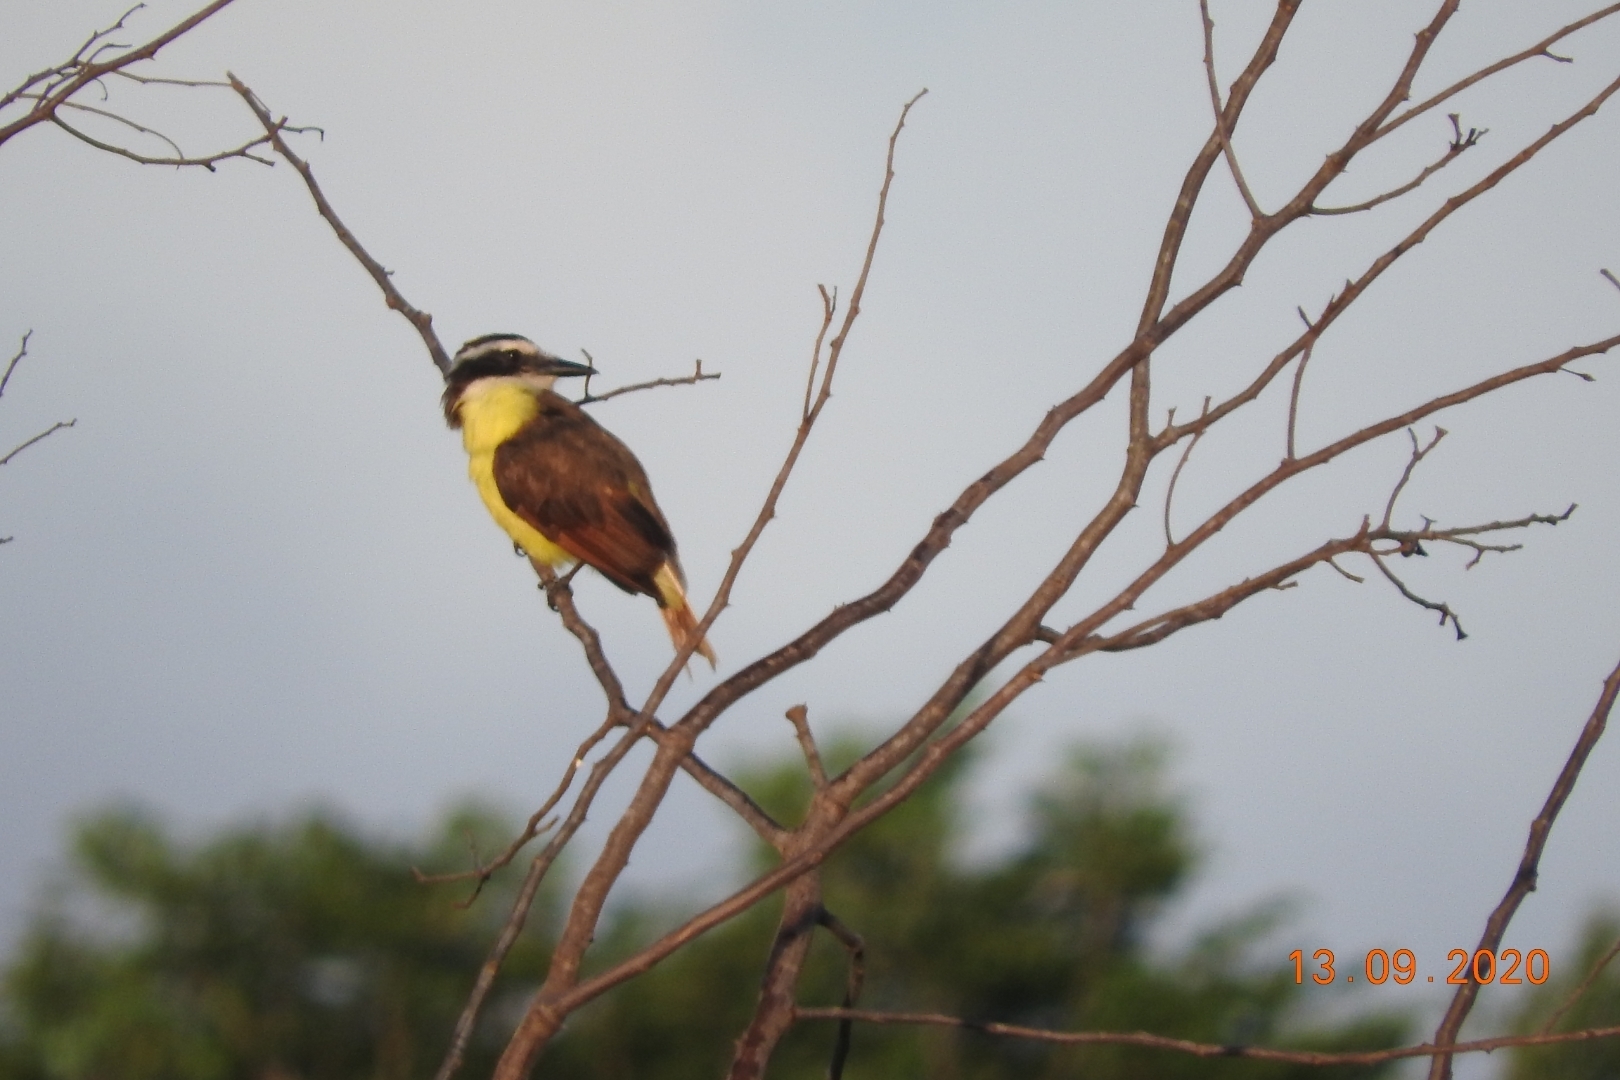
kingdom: Animalia
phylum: Chordata
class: Aves
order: Passeriformes
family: Tyrannidae
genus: Pitangus
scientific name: Pitangus sulphuratus
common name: Great kiskadee
